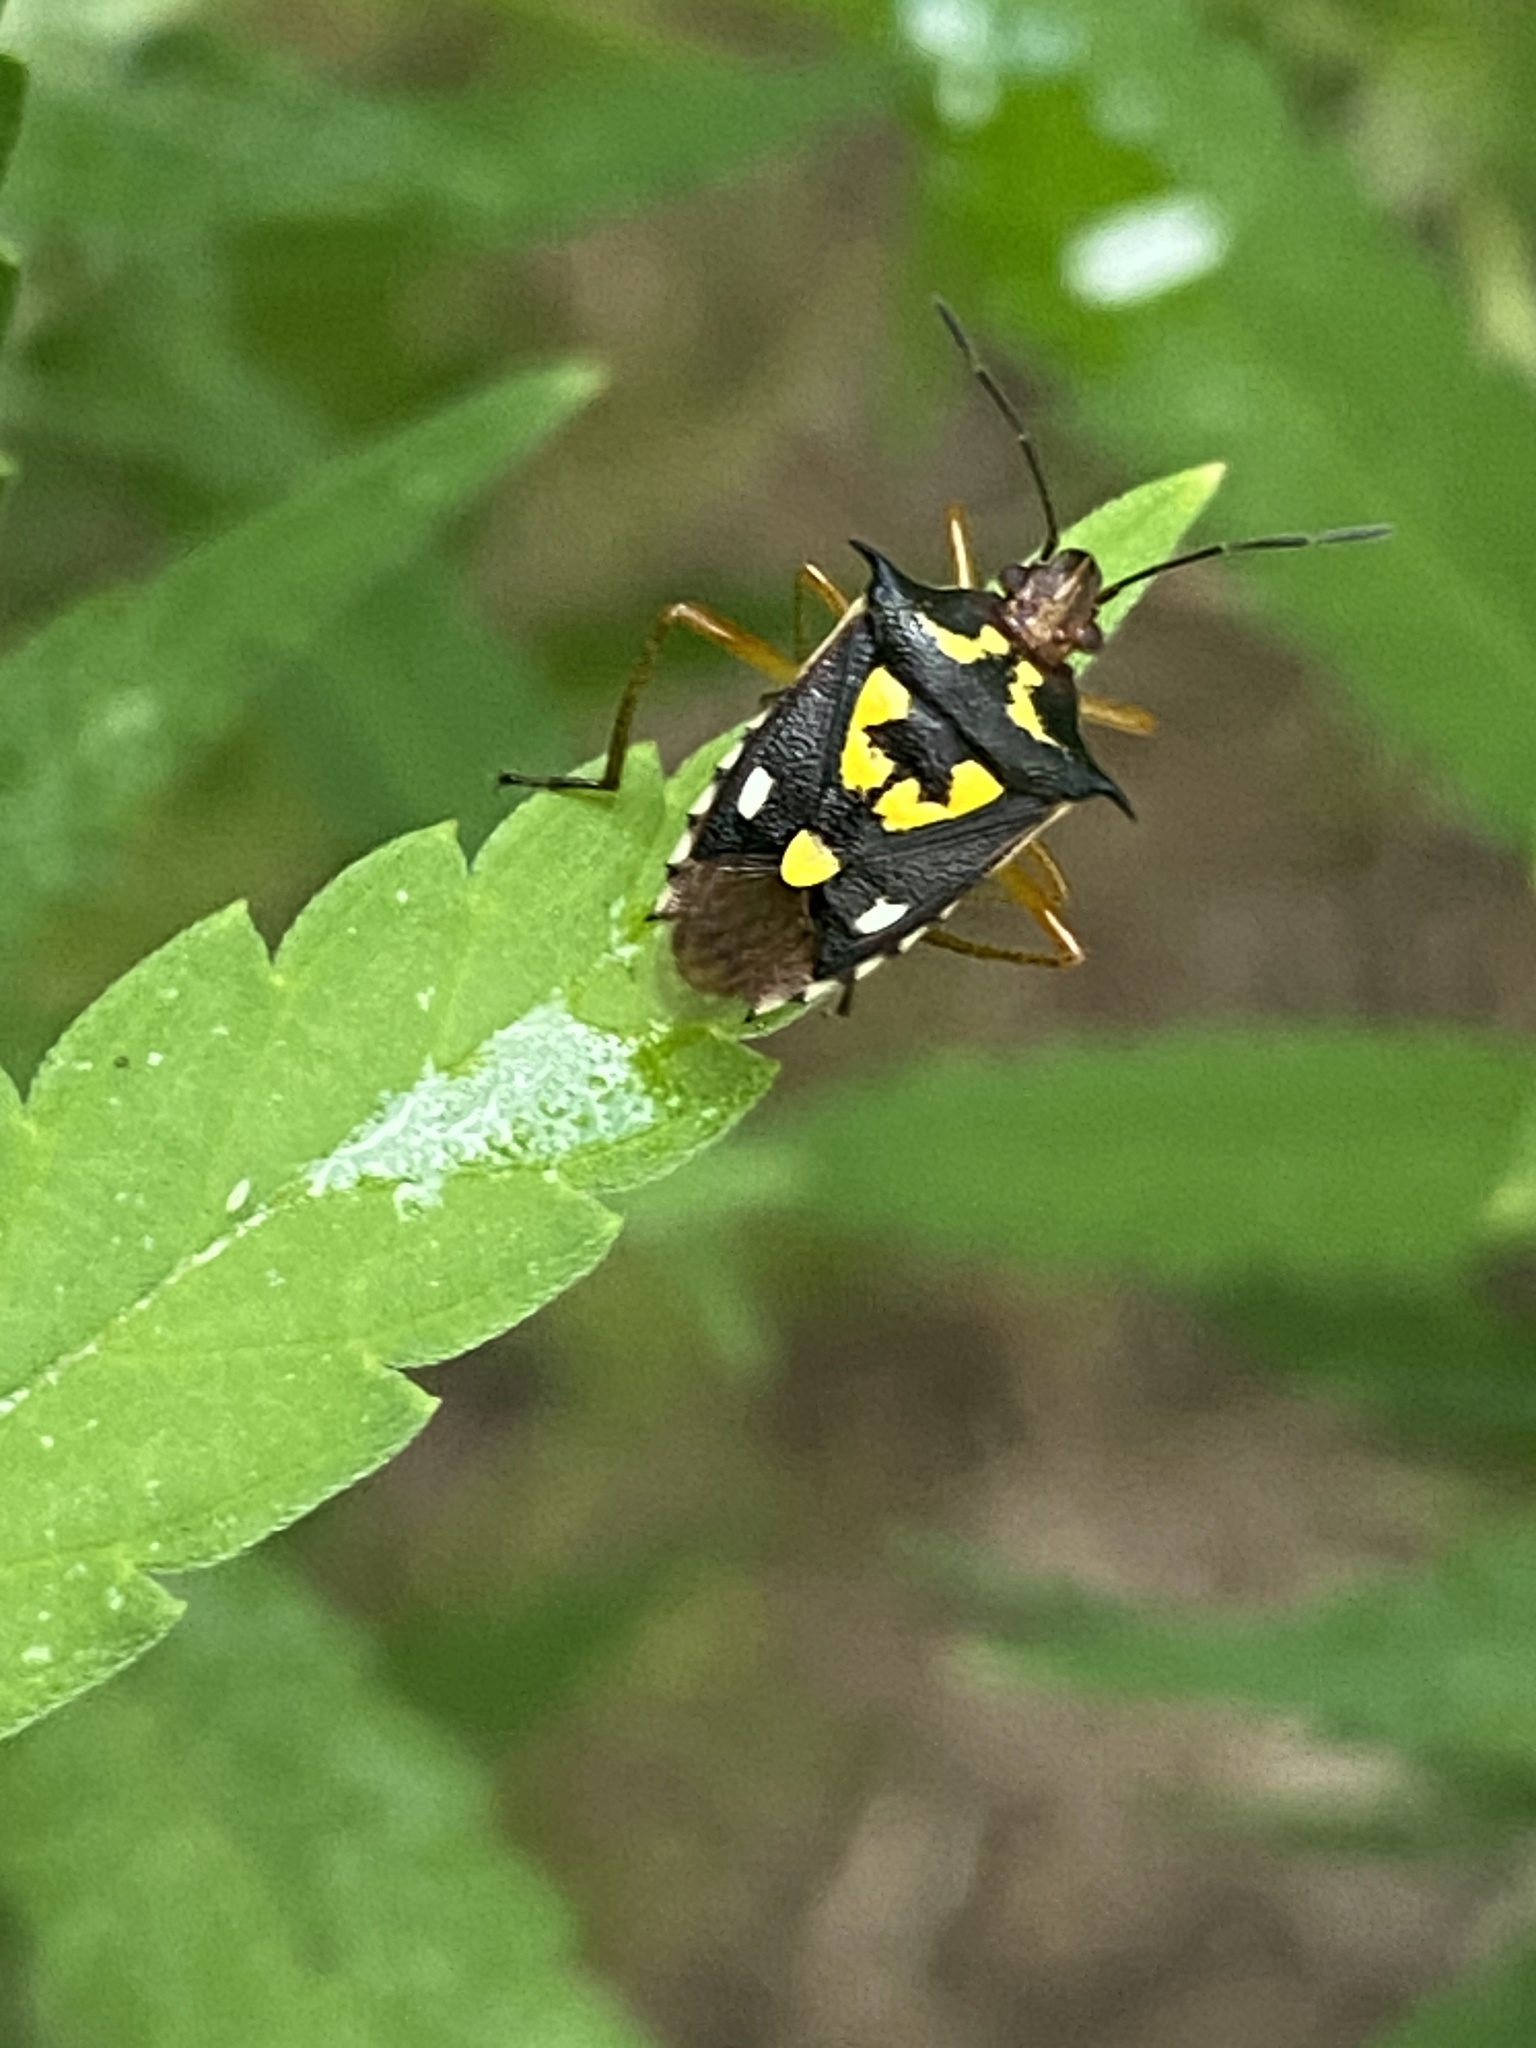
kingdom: Animalia
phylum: Arthropoda
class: Insecta
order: Hemiptera
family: Pentatomidae
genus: Oebalus
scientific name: Oebalus poecilus
